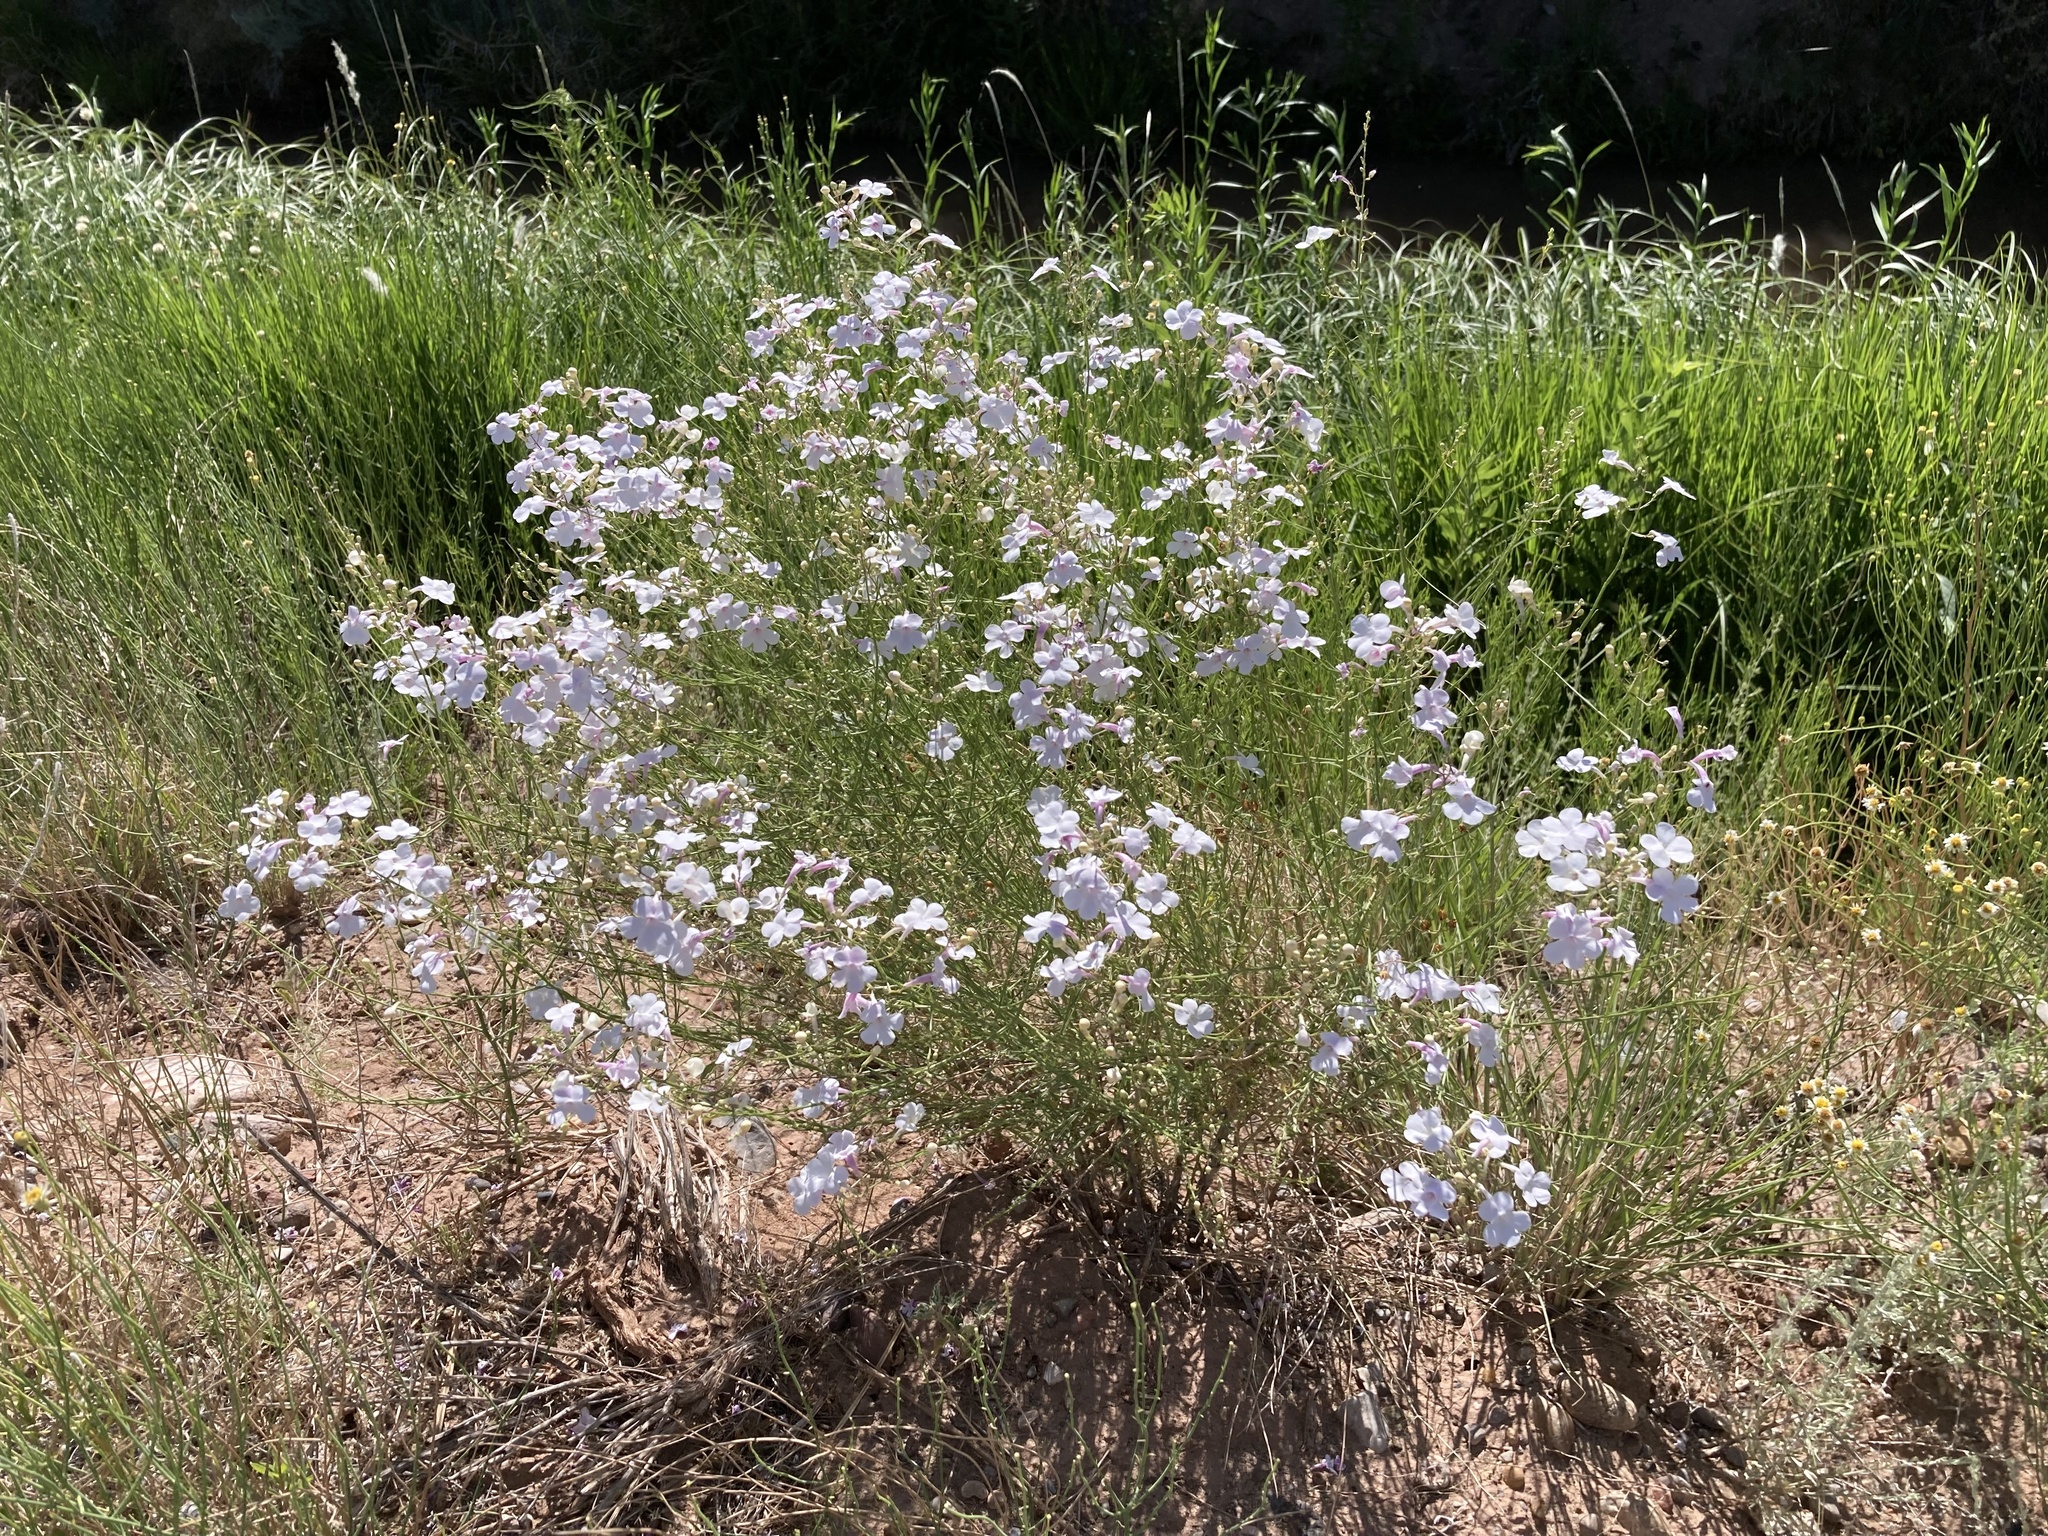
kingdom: Plantae
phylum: Tracheophyta
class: Magnoliopsida
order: Lamiales
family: Plantaginaceae
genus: Penstemon
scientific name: Penstemon ambiguus
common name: Bush penstemon
